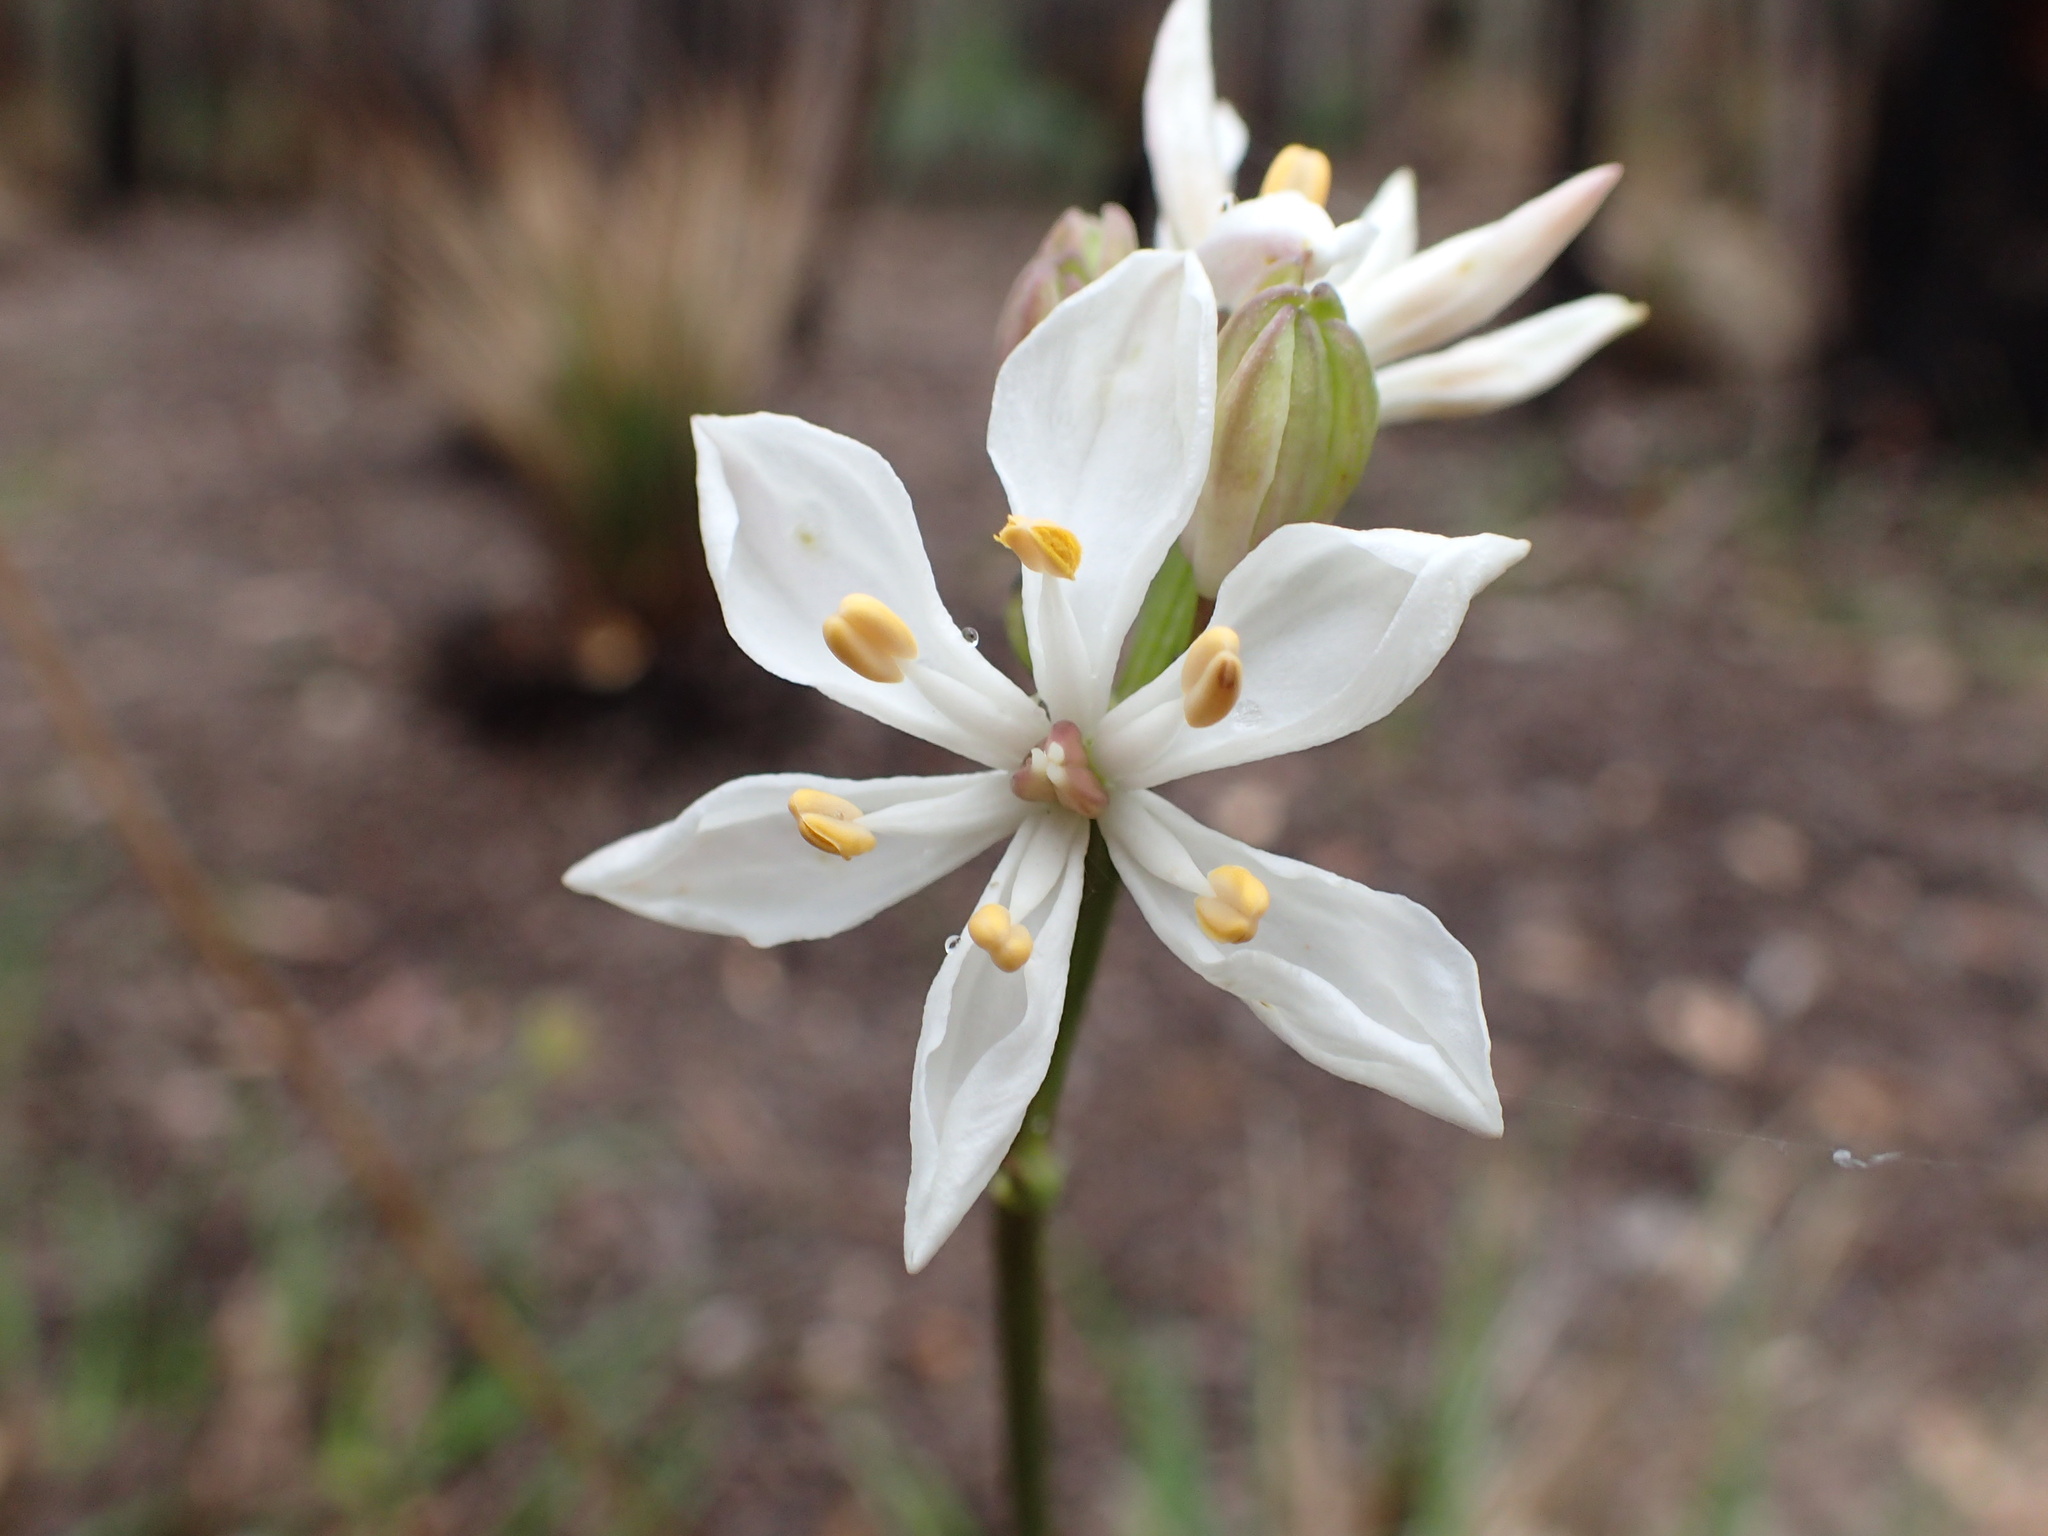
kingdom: Plantae
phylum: Tracheophyta
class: Liliopsida
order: Liliales
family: Colchicaceae
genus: Burchardia
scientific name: Burchardia congesta
